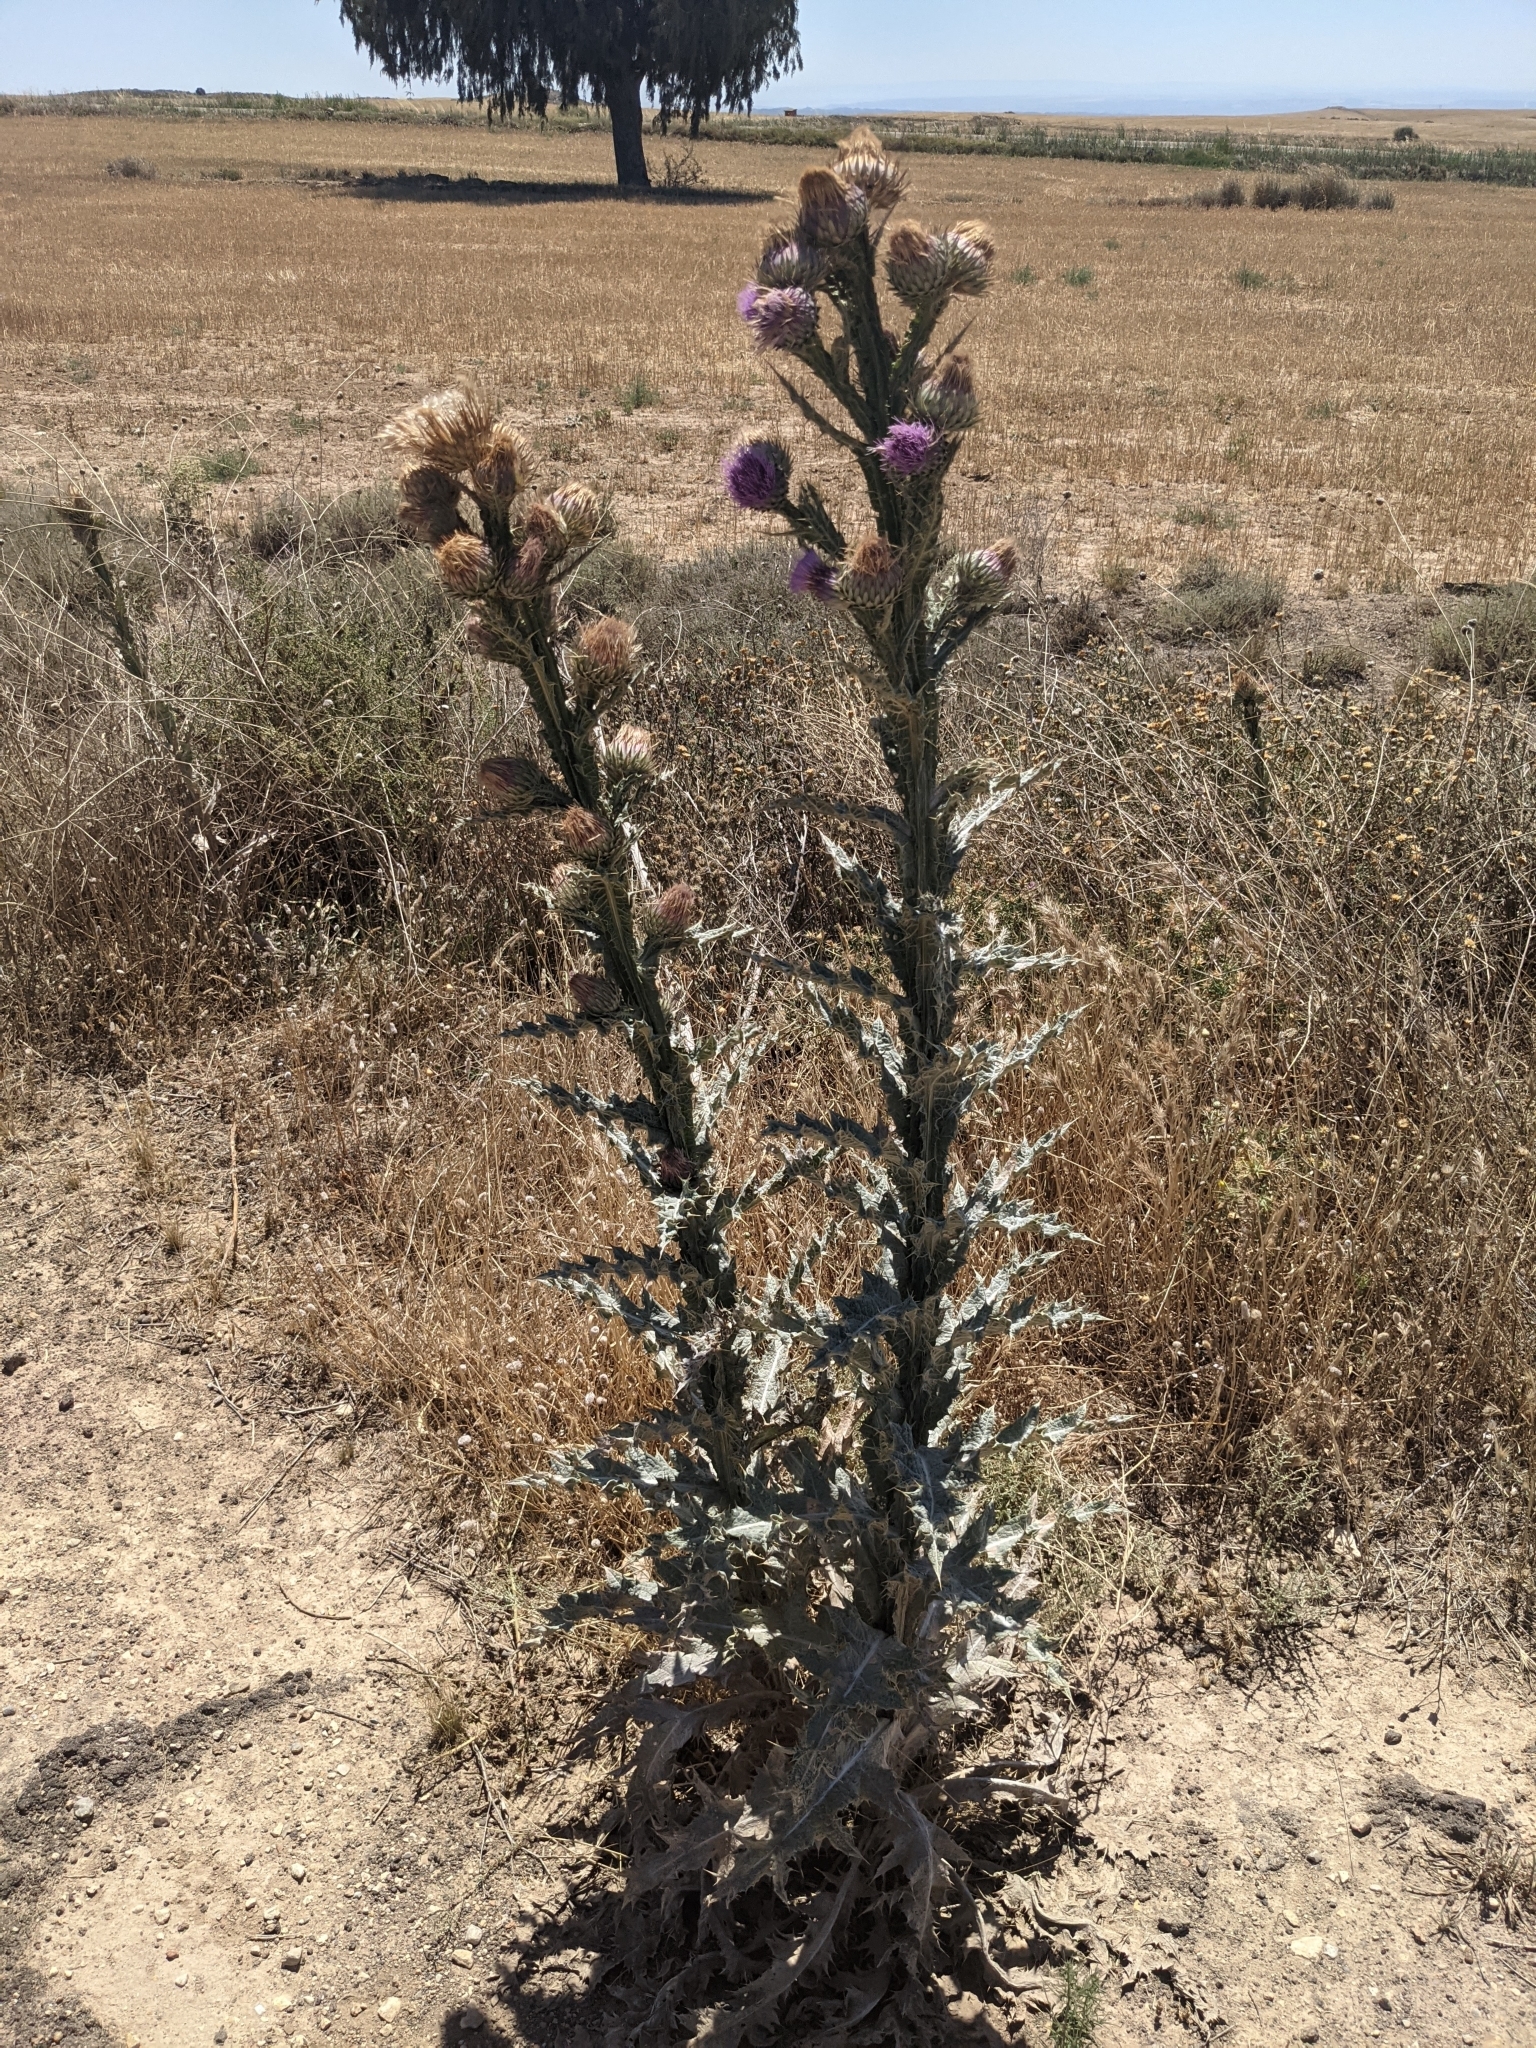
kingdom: Plantae
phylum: Tracheophyta
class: Magnoliopsida
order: Asterales
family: Asteraceae
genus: Onopordum
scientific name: Onopordum nervosum
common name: Reticulate thistle
